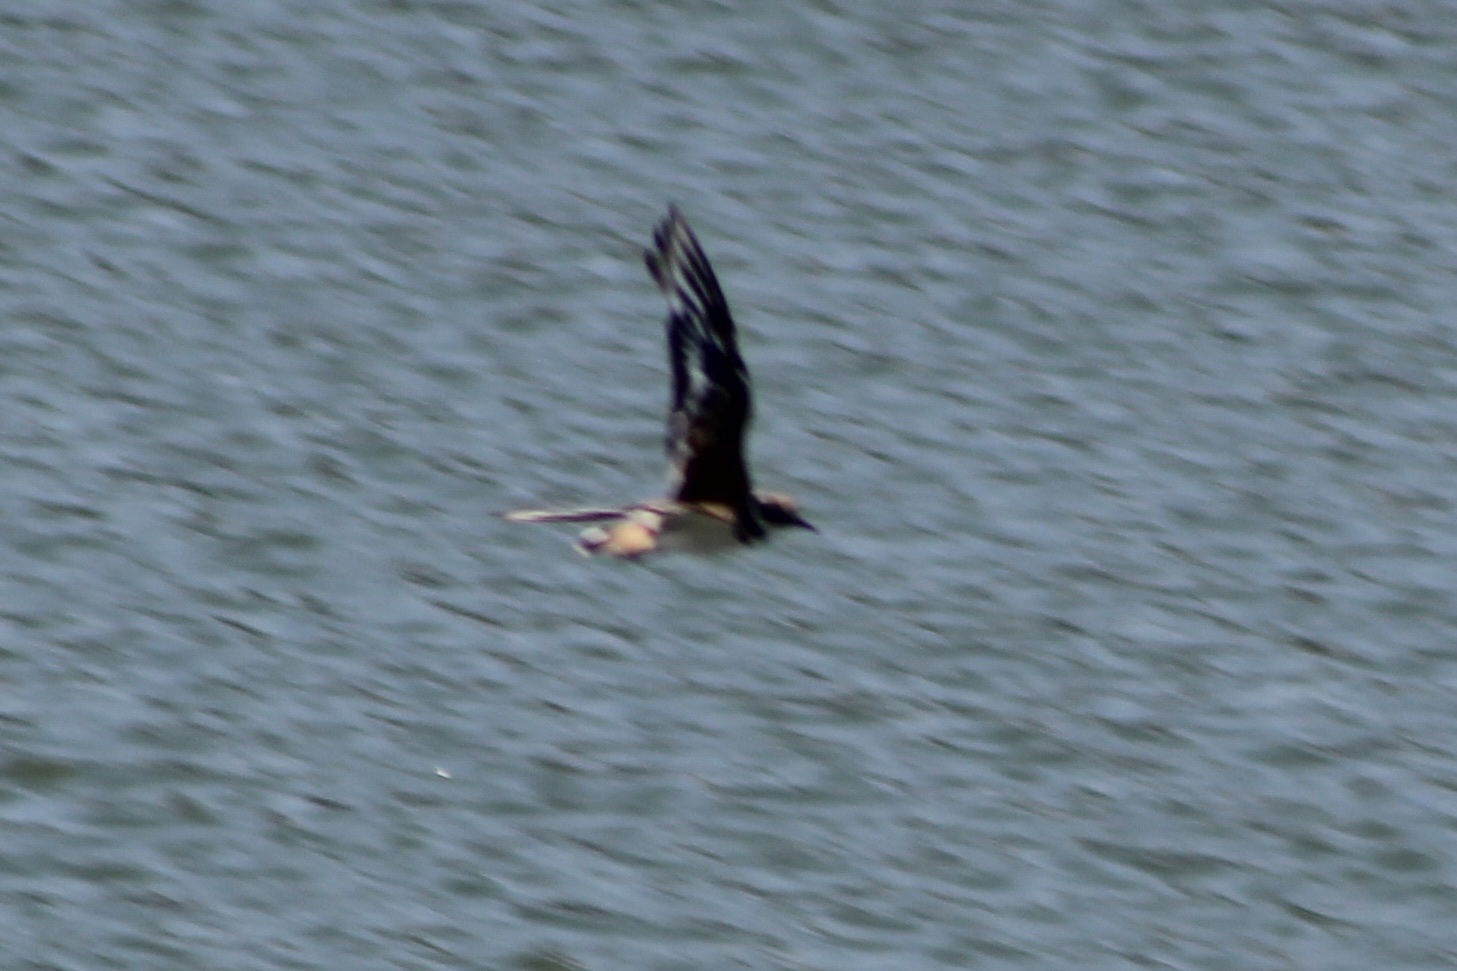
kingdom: Animalia
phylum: Chordata
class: Aves
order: Charadriiformes
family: Charadriidae
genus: Charadrius
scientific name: Charadrius vociferus
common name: Killdeer
